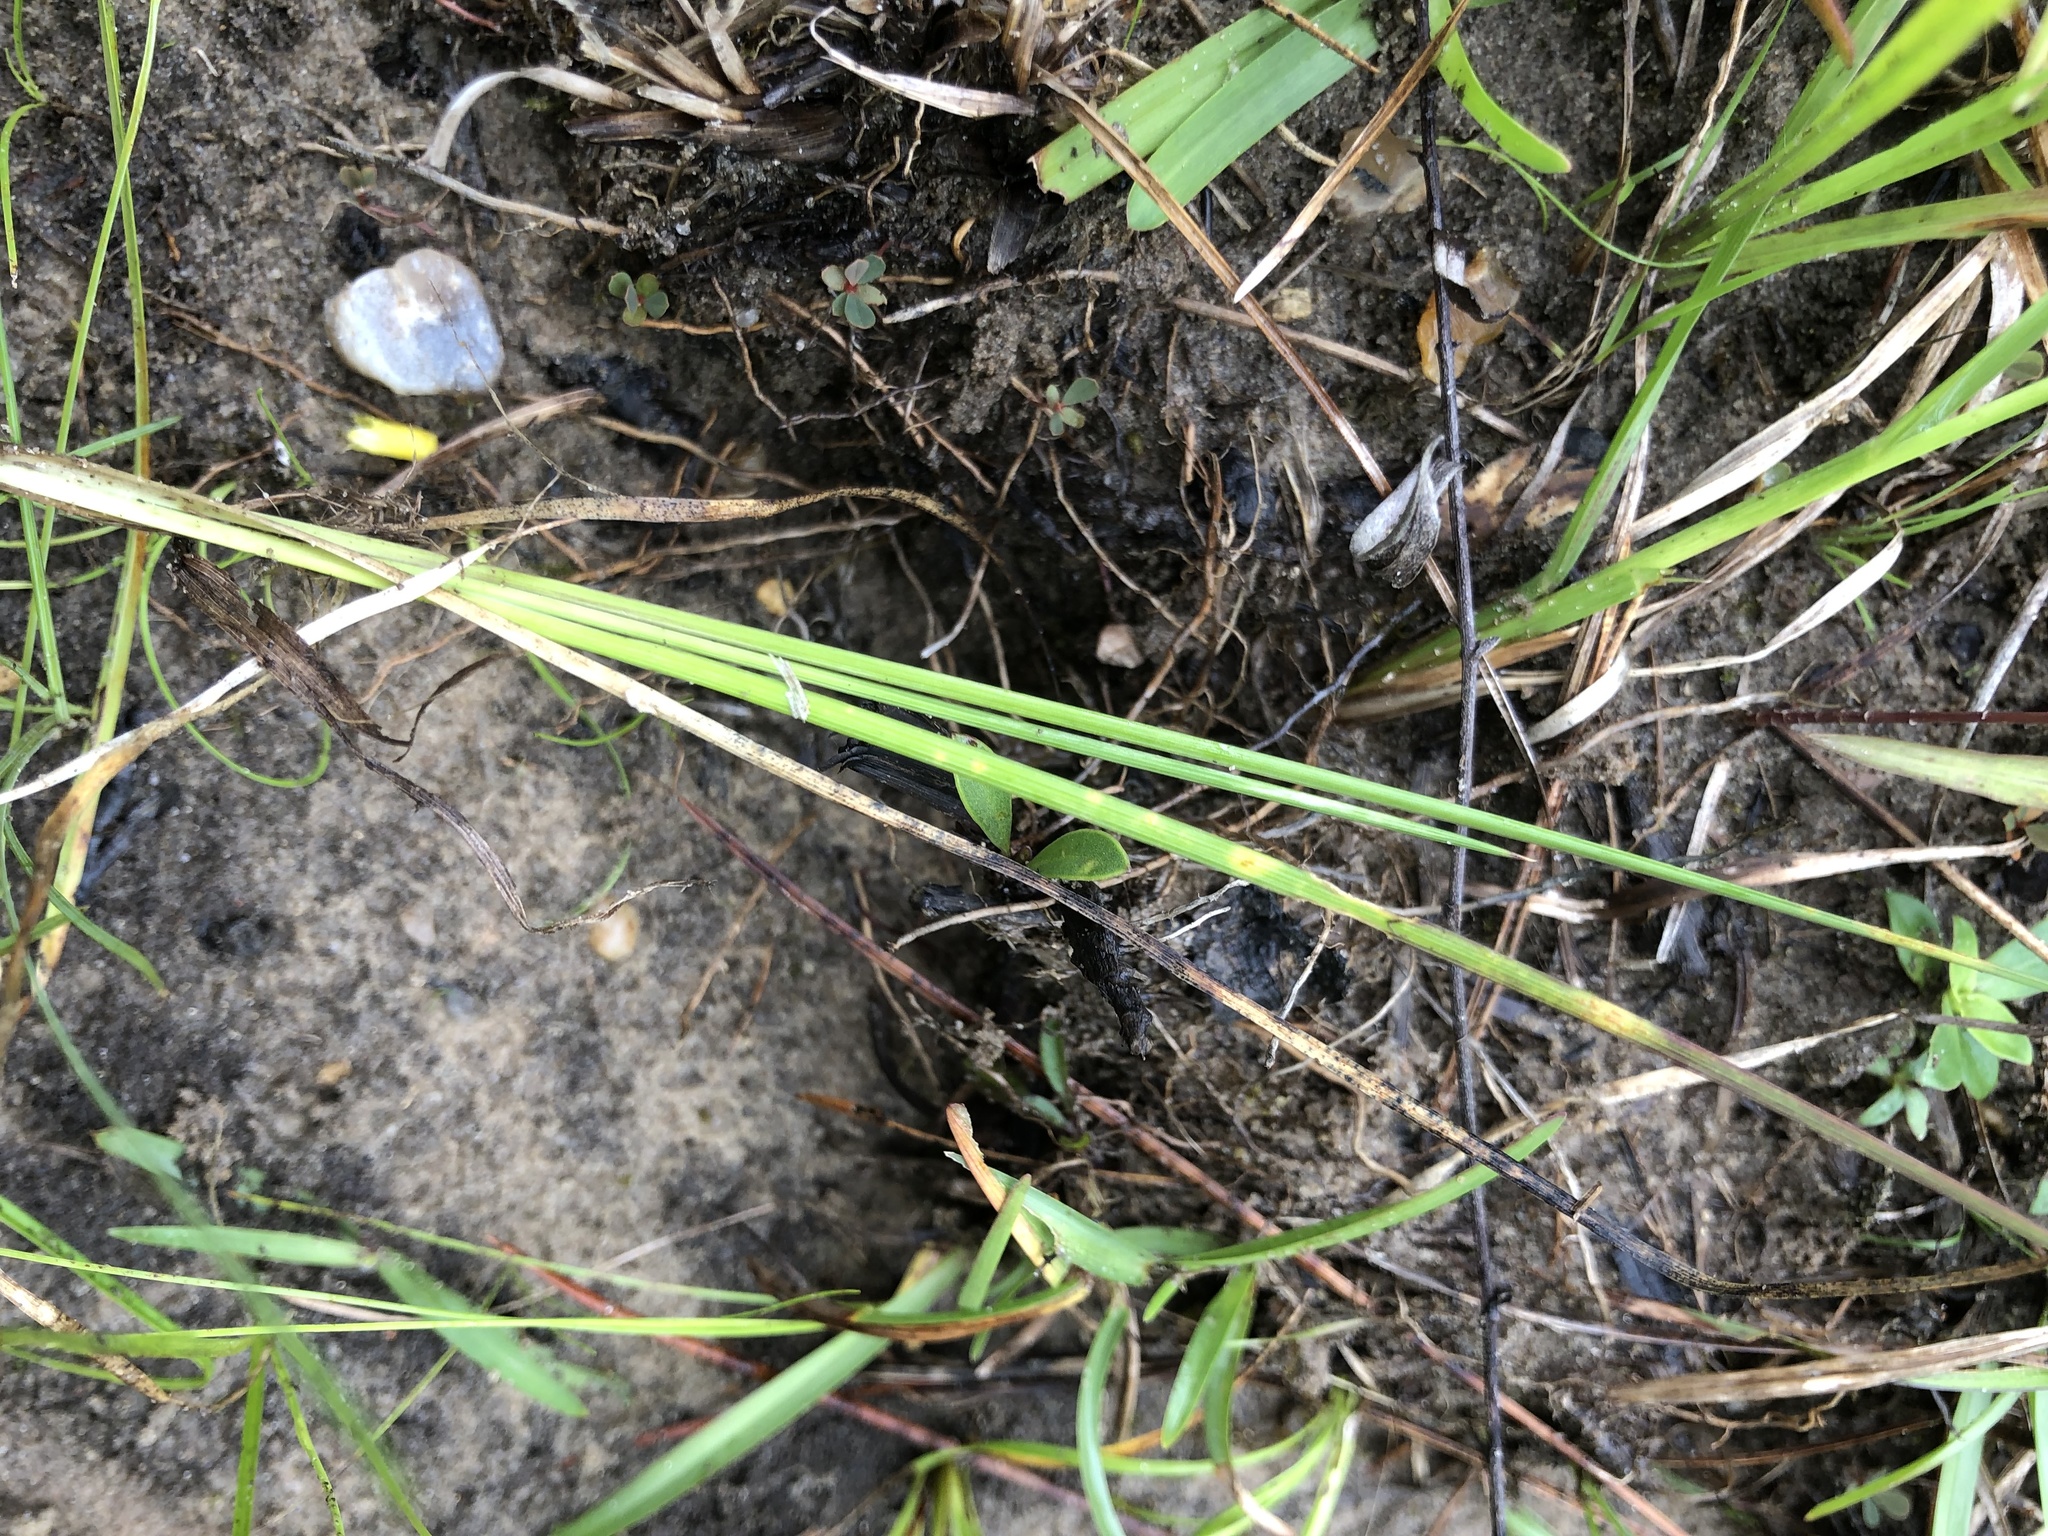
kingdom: Plantae
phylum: Tracheophyta
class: Liliopsida
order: Asparagales
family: Iridaceae
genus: Sisyrinchium
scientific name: Sisyrinchium fuscatum
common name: Coastal plain blue-eyed-grass
